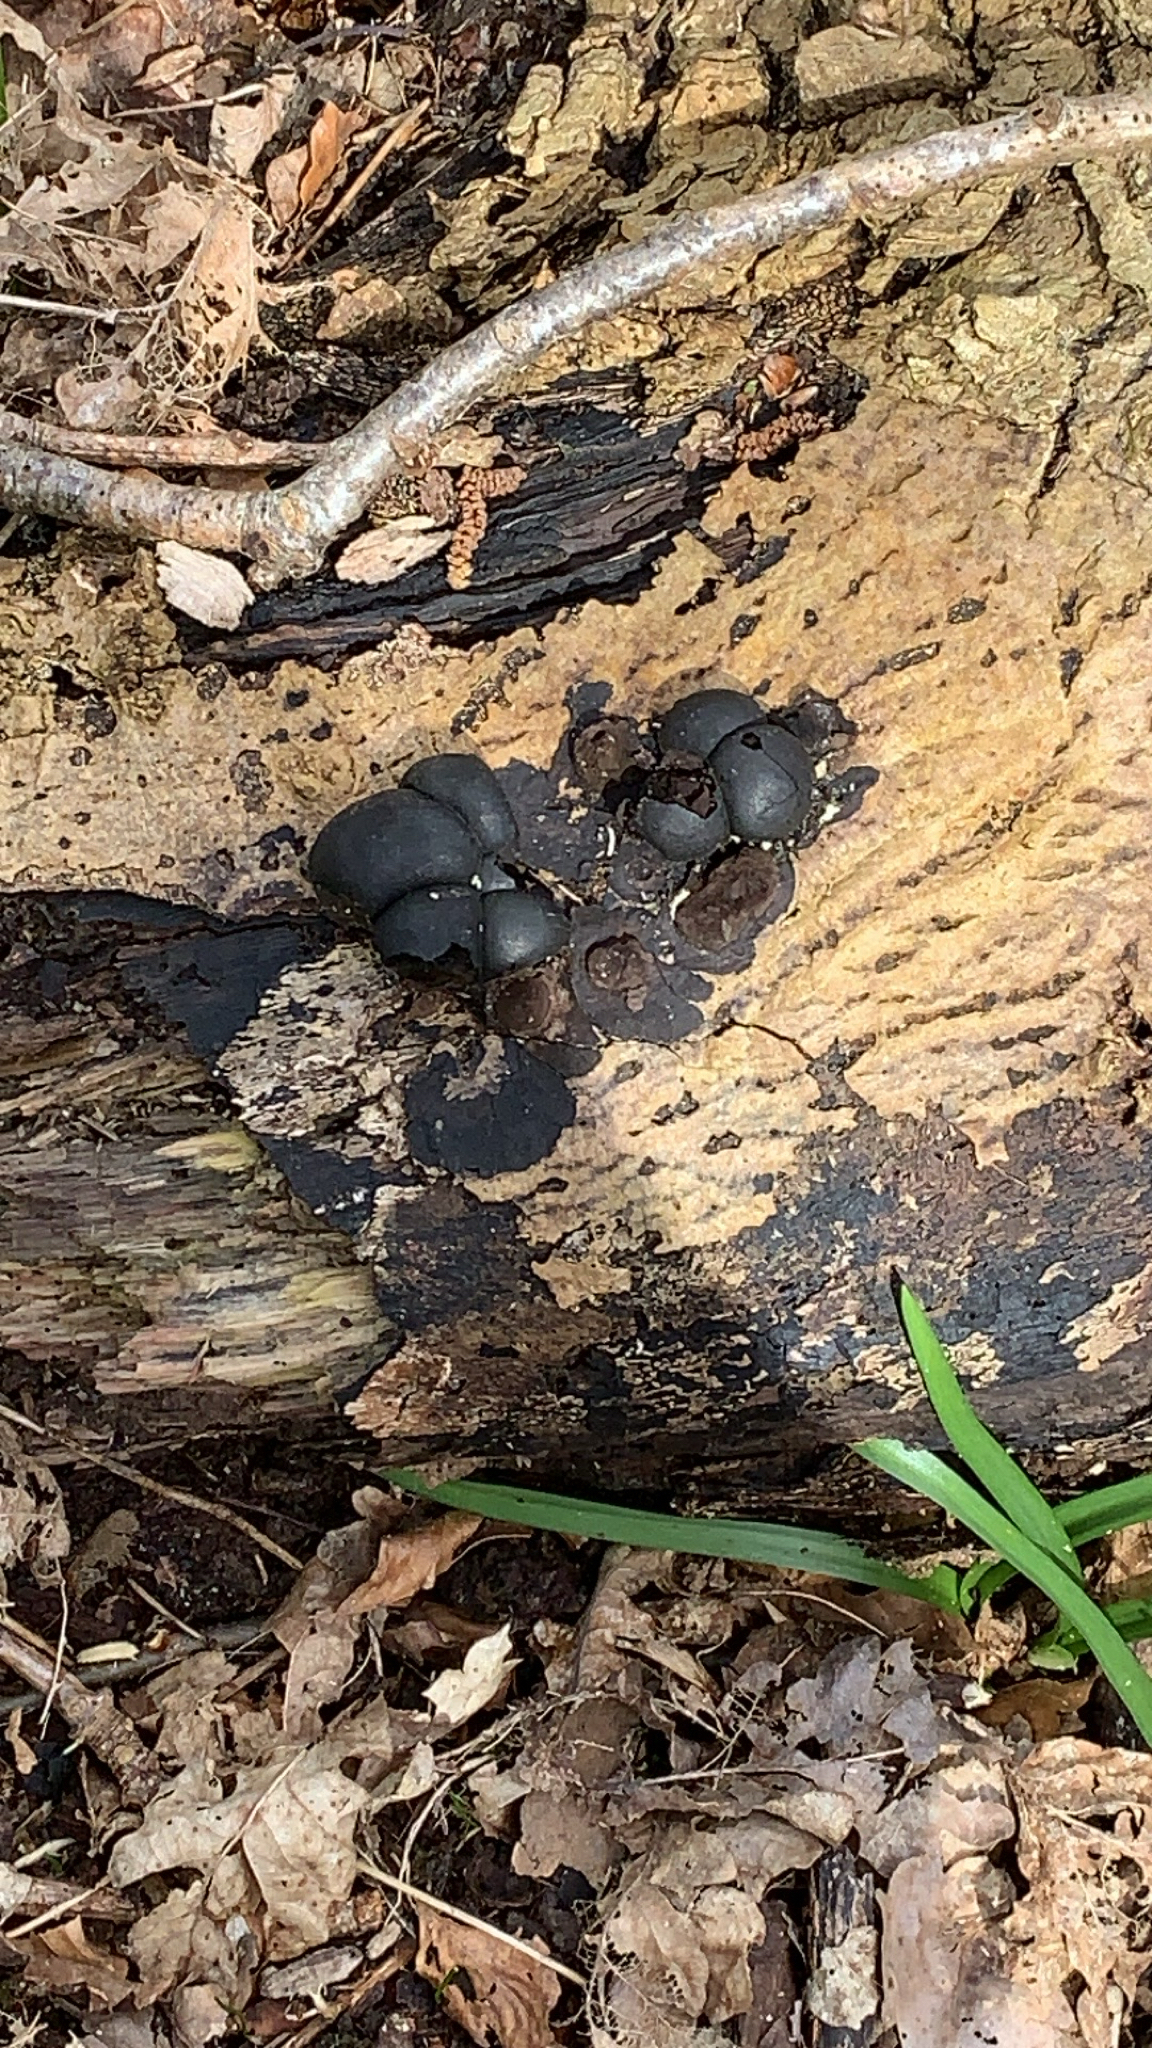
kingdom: Fungi
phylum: Ascomycota
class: Sordariomycetes
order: Xylariales
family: Hypoxylaceae
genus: Daldinia
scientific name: Daldinia concentrica
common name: Cramp balls
